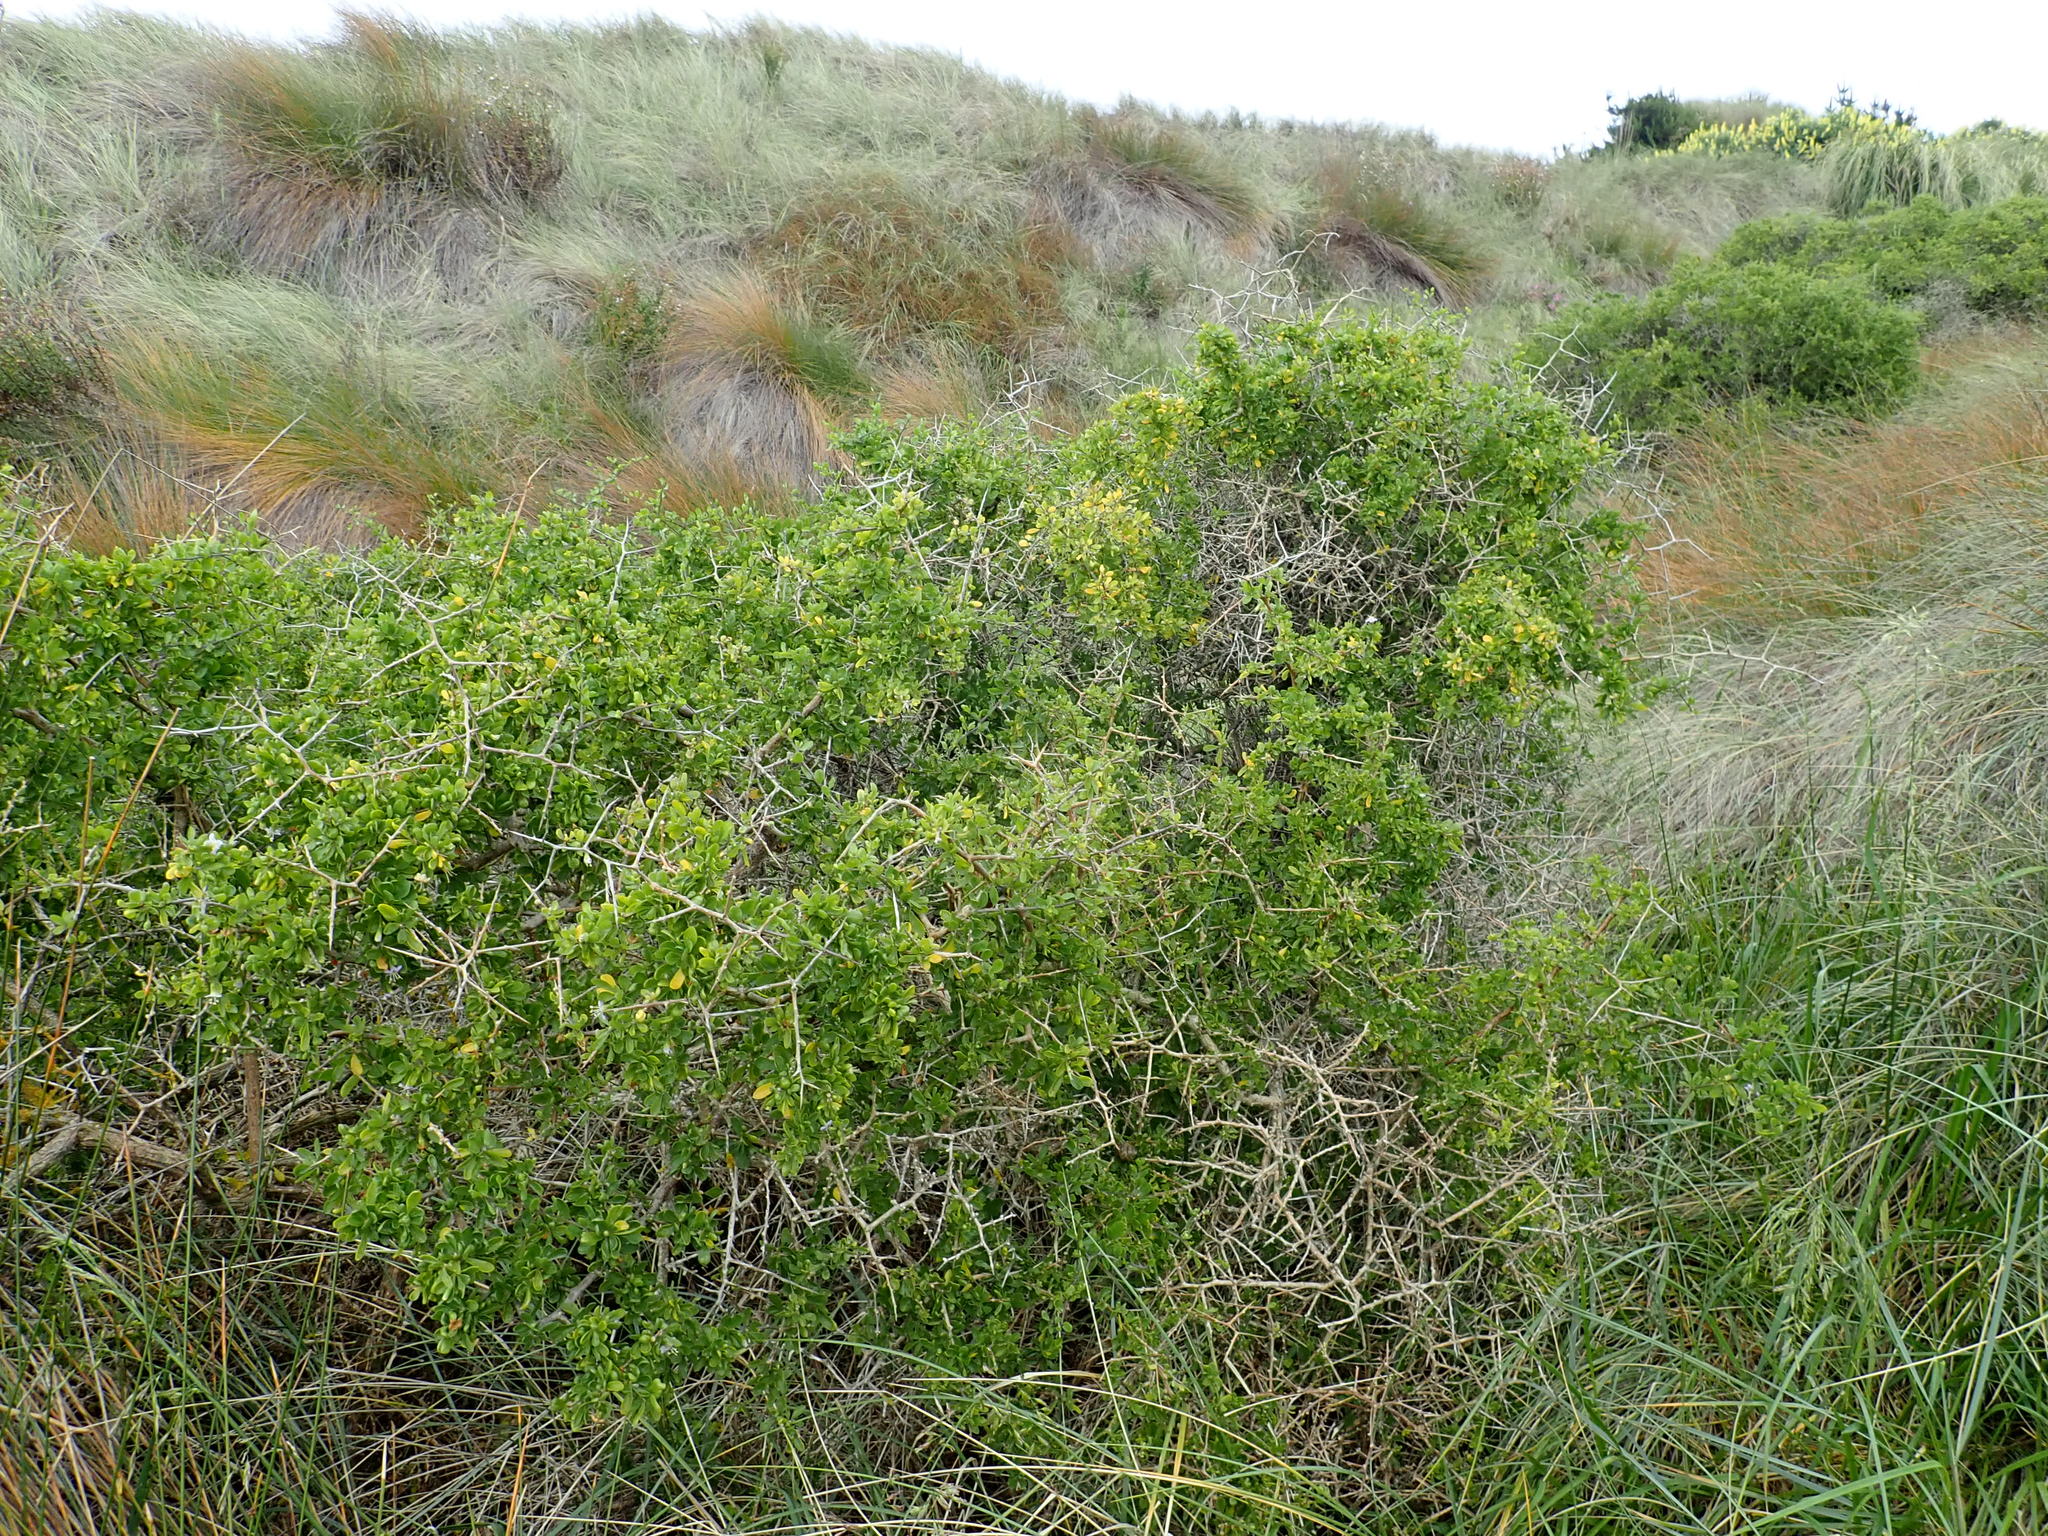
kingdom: Plantae
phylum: Tracheophyta
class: Magnoliopsida
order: Solanales
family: Solanaceae
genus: Lycium
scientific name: Lycium ferocissimum
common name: African boxthorn
